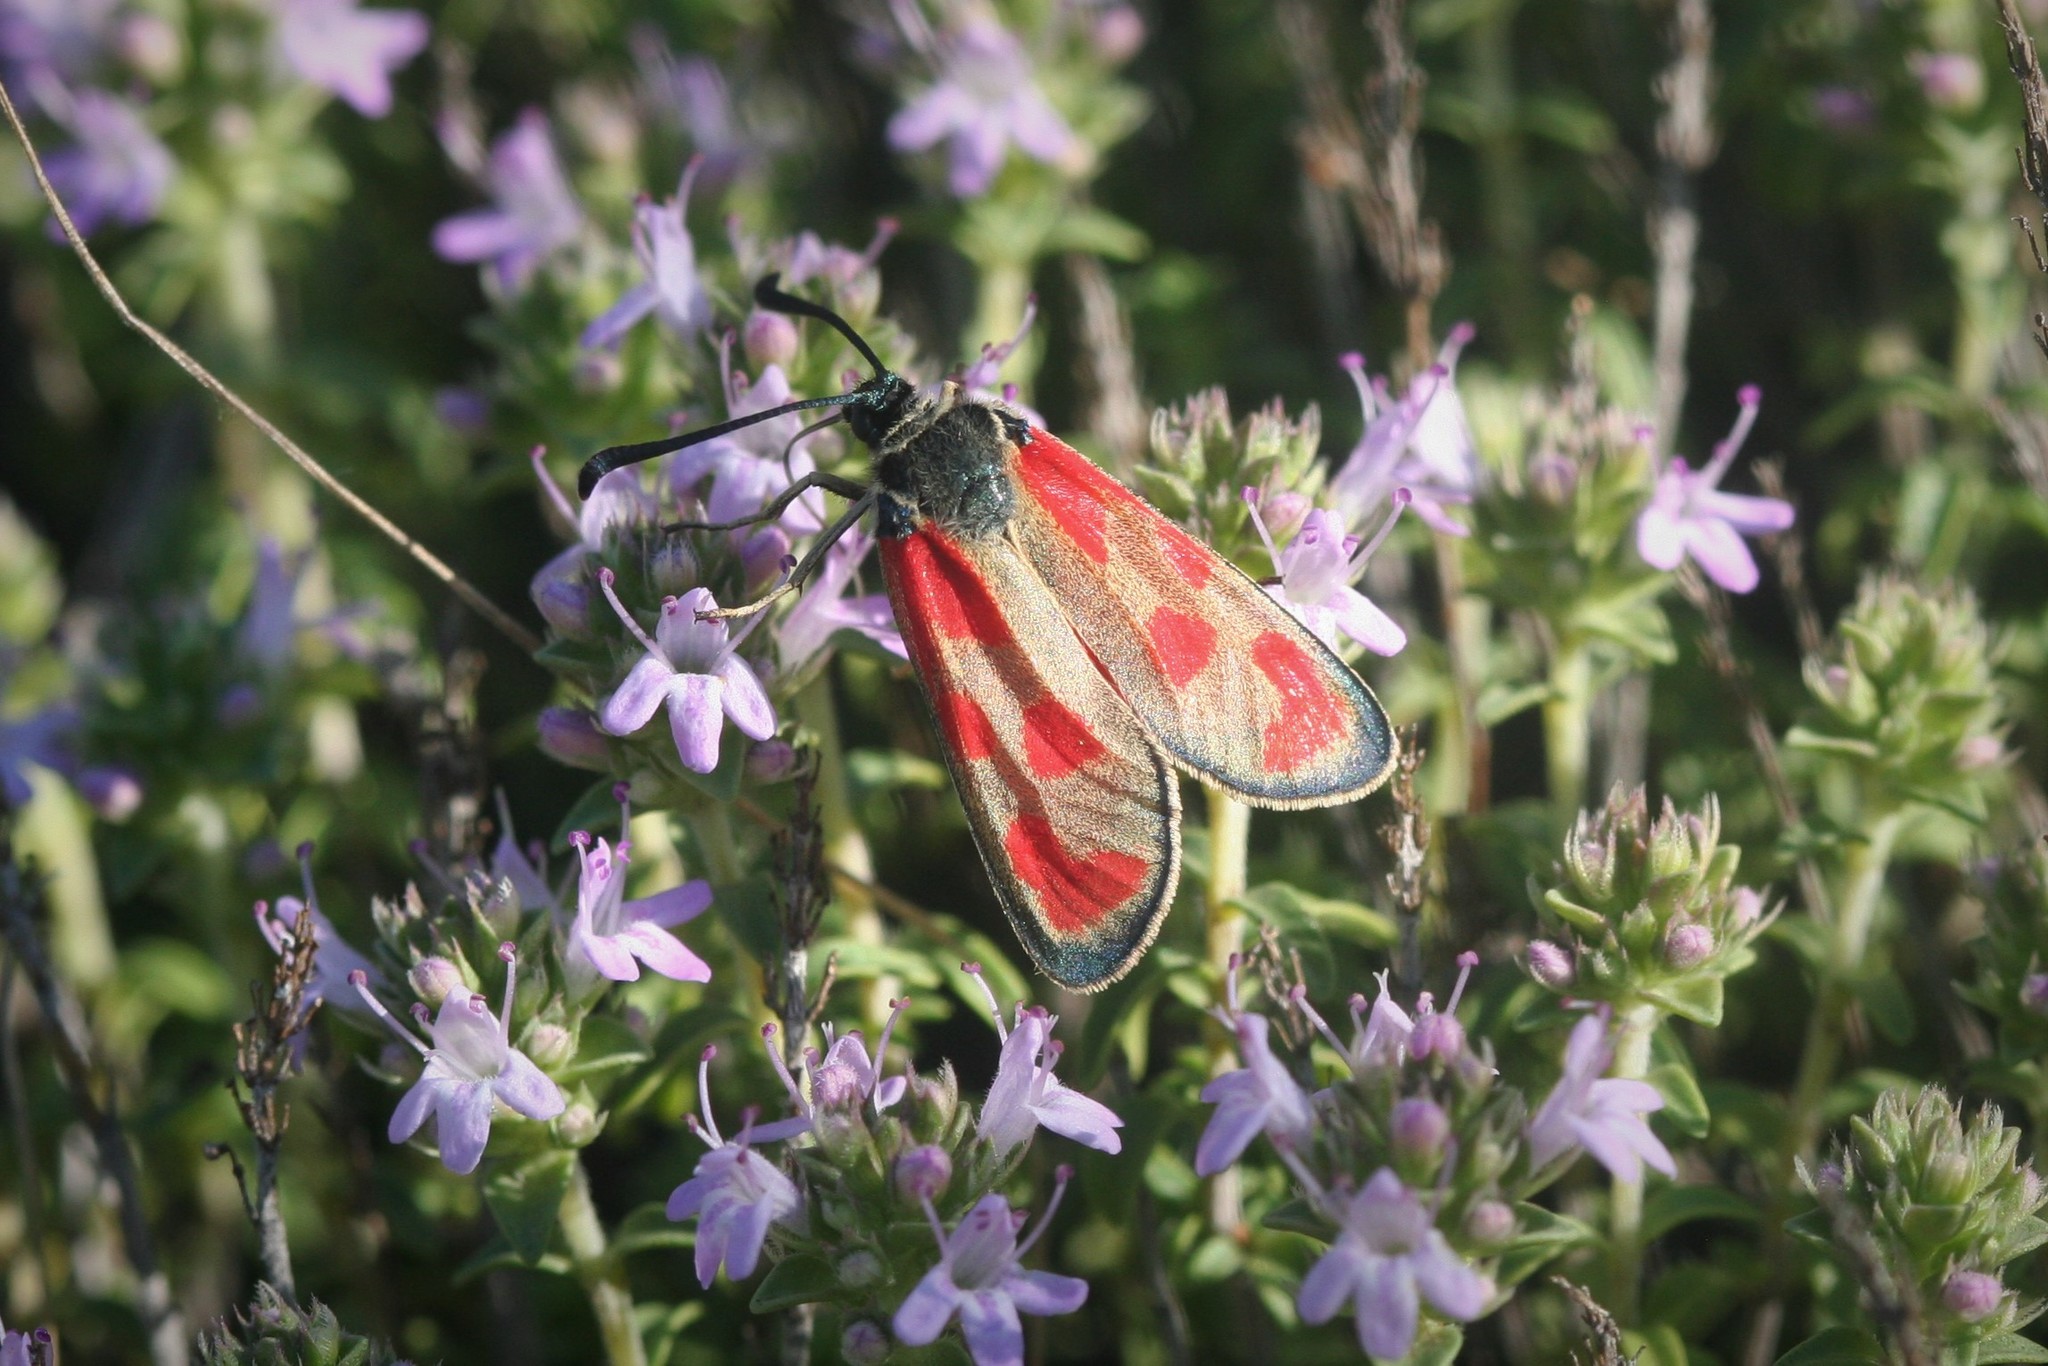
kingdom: Animalia
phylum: Arthropoda
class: Insecta
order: Lepidoptera
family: Zygaenidae
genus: Zygaena
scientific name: Zygaena loti
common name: Slender scotch burnet
